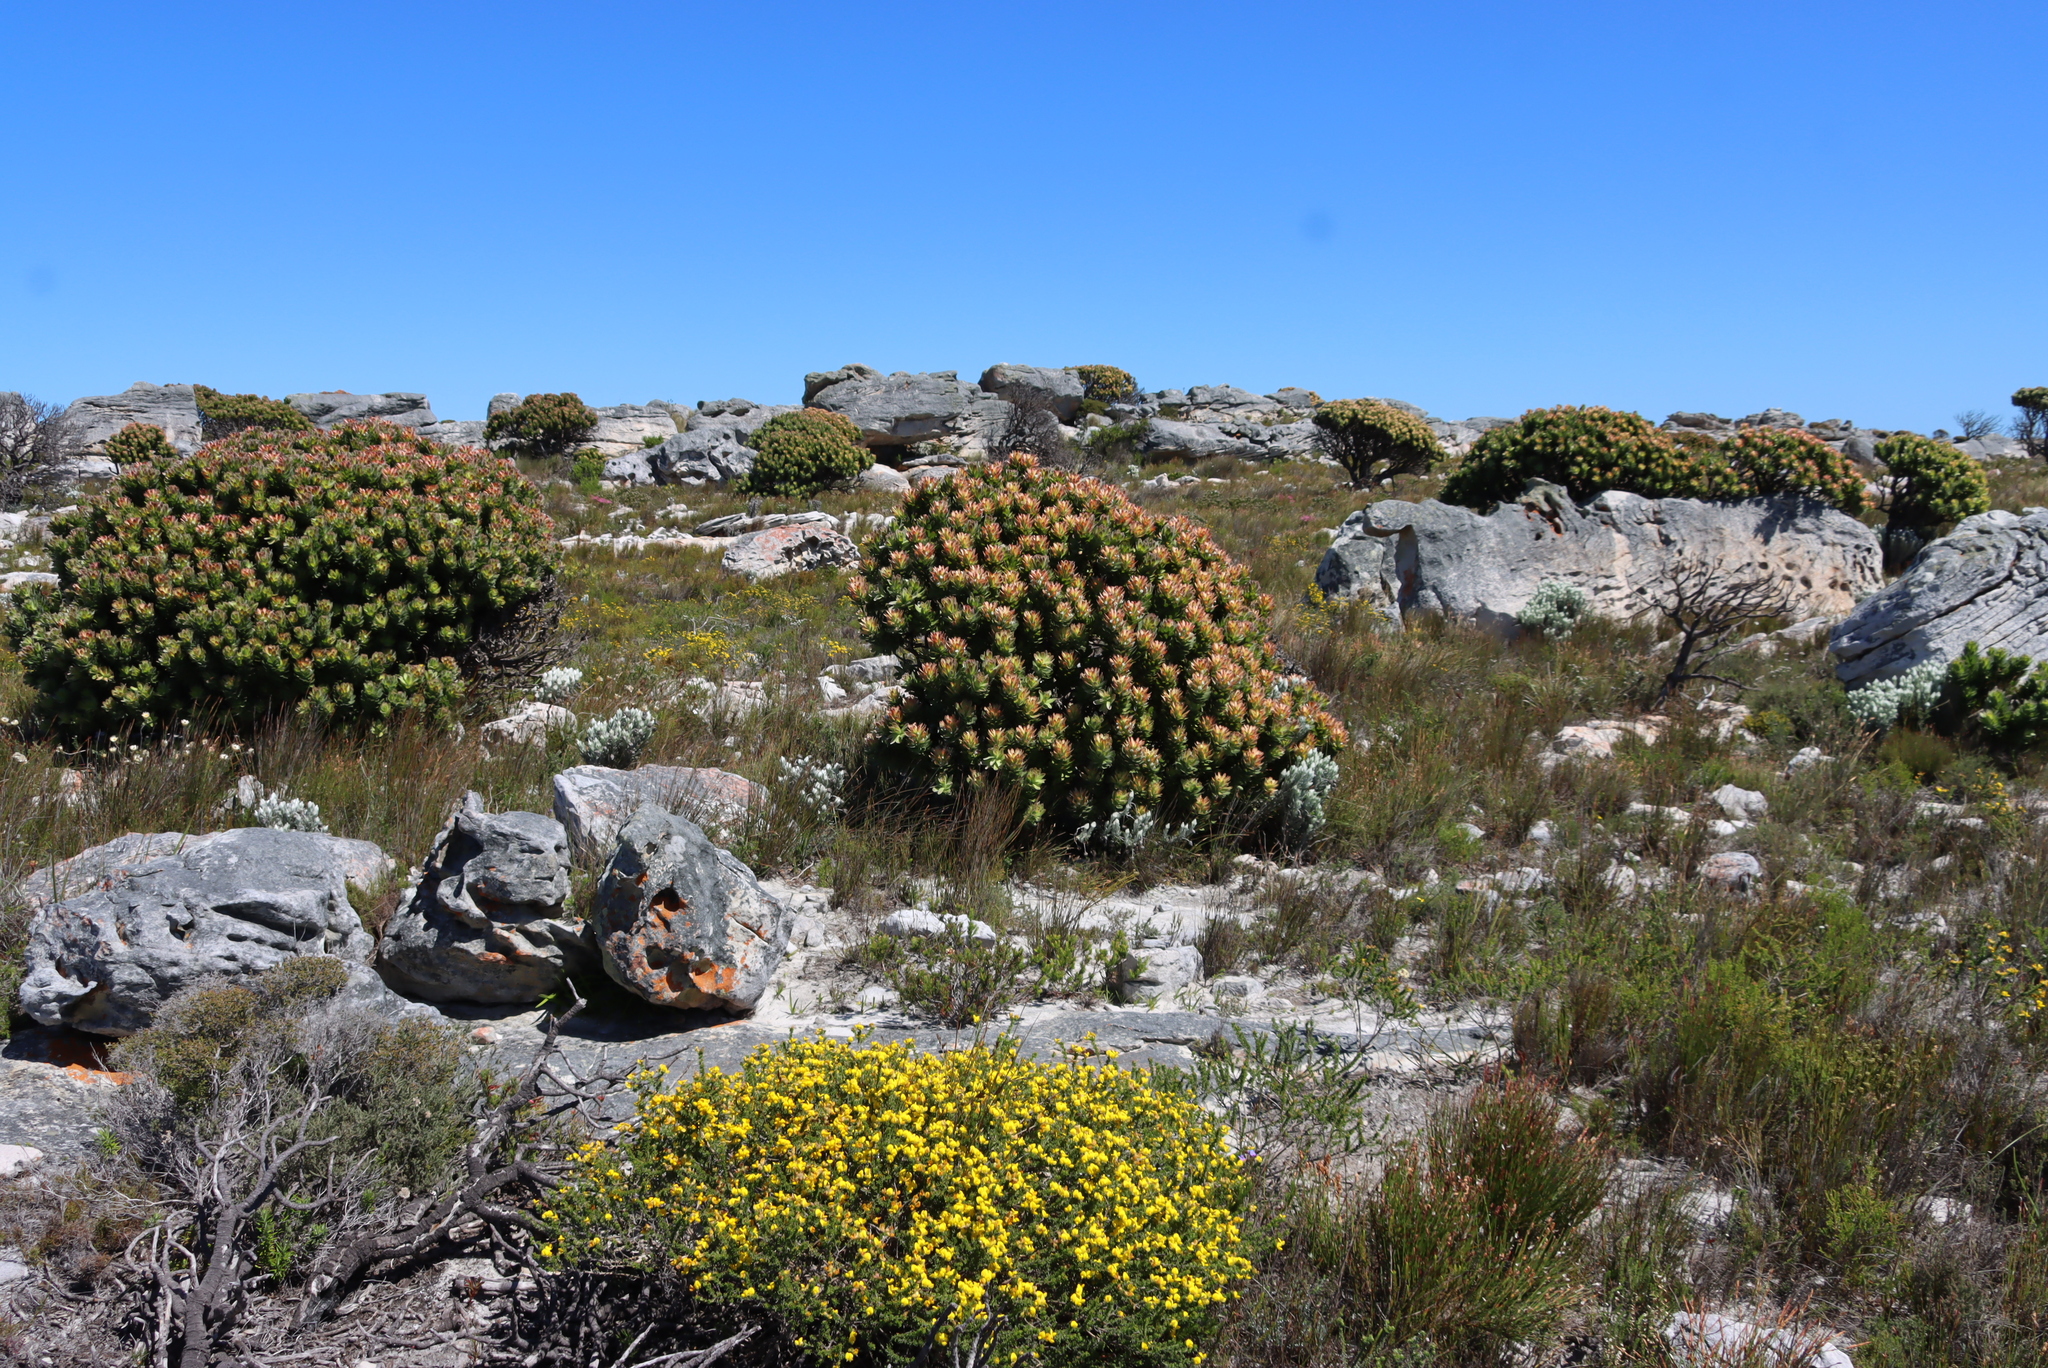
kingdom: Plantae
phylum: Tracheophyta
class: Magnoliopsida
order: Proteales
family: Proteaceae
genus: Mimetes
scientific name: Mimetes fimbriifolius
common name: Fringed bottlebrush
